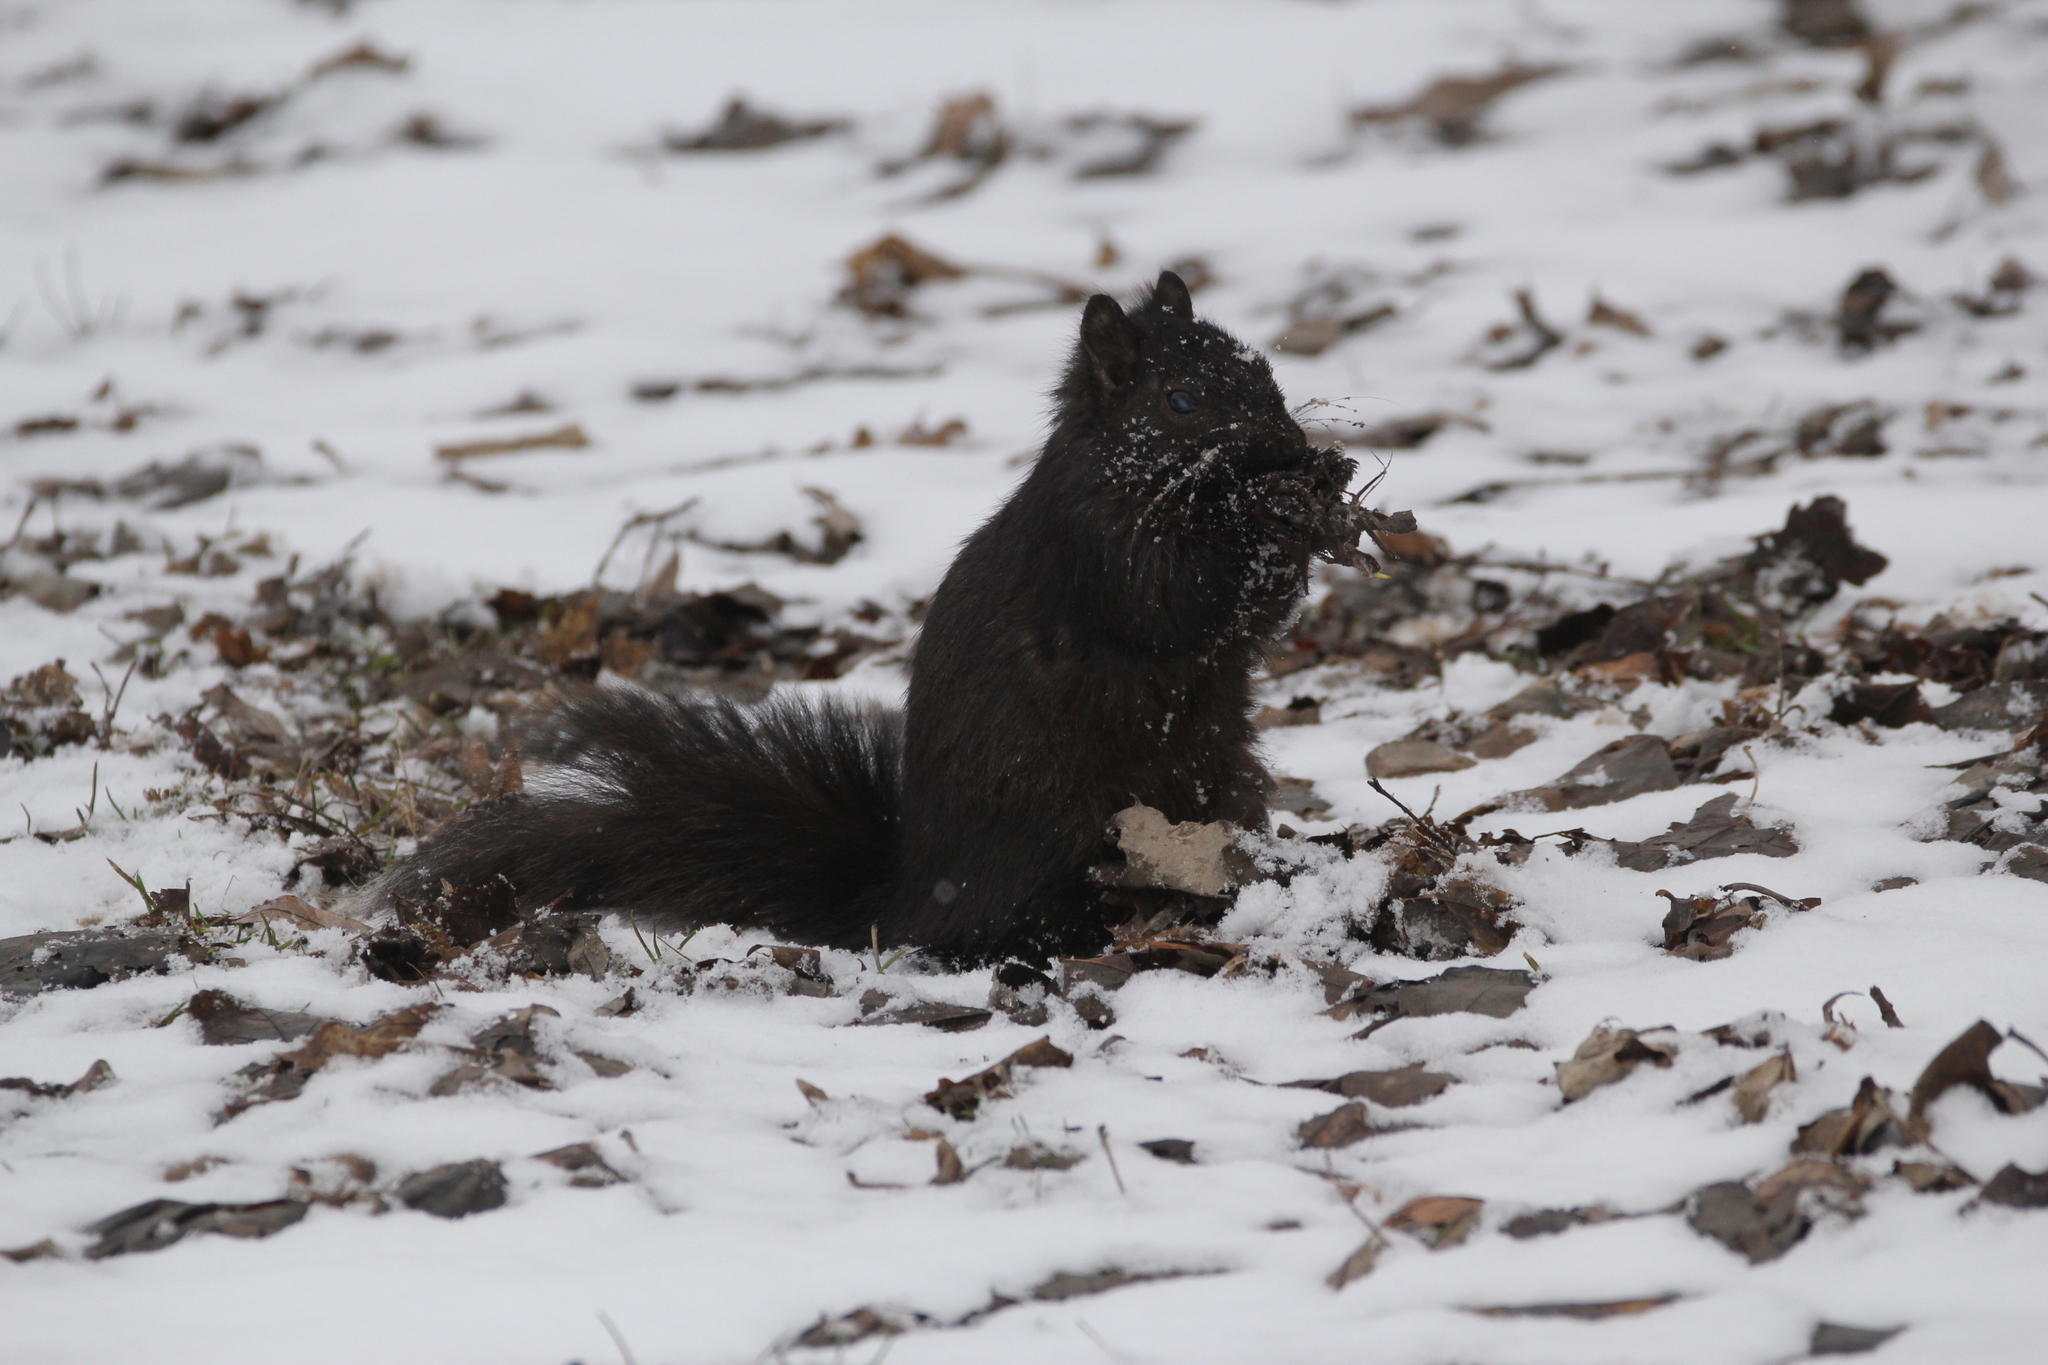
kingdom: Animalia
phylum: Chordata
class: Mammalia
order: Rodentia
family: Sciuridae
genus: Sciurus
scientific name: Sciurus carolinensis
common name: Eastern gray squirrel
